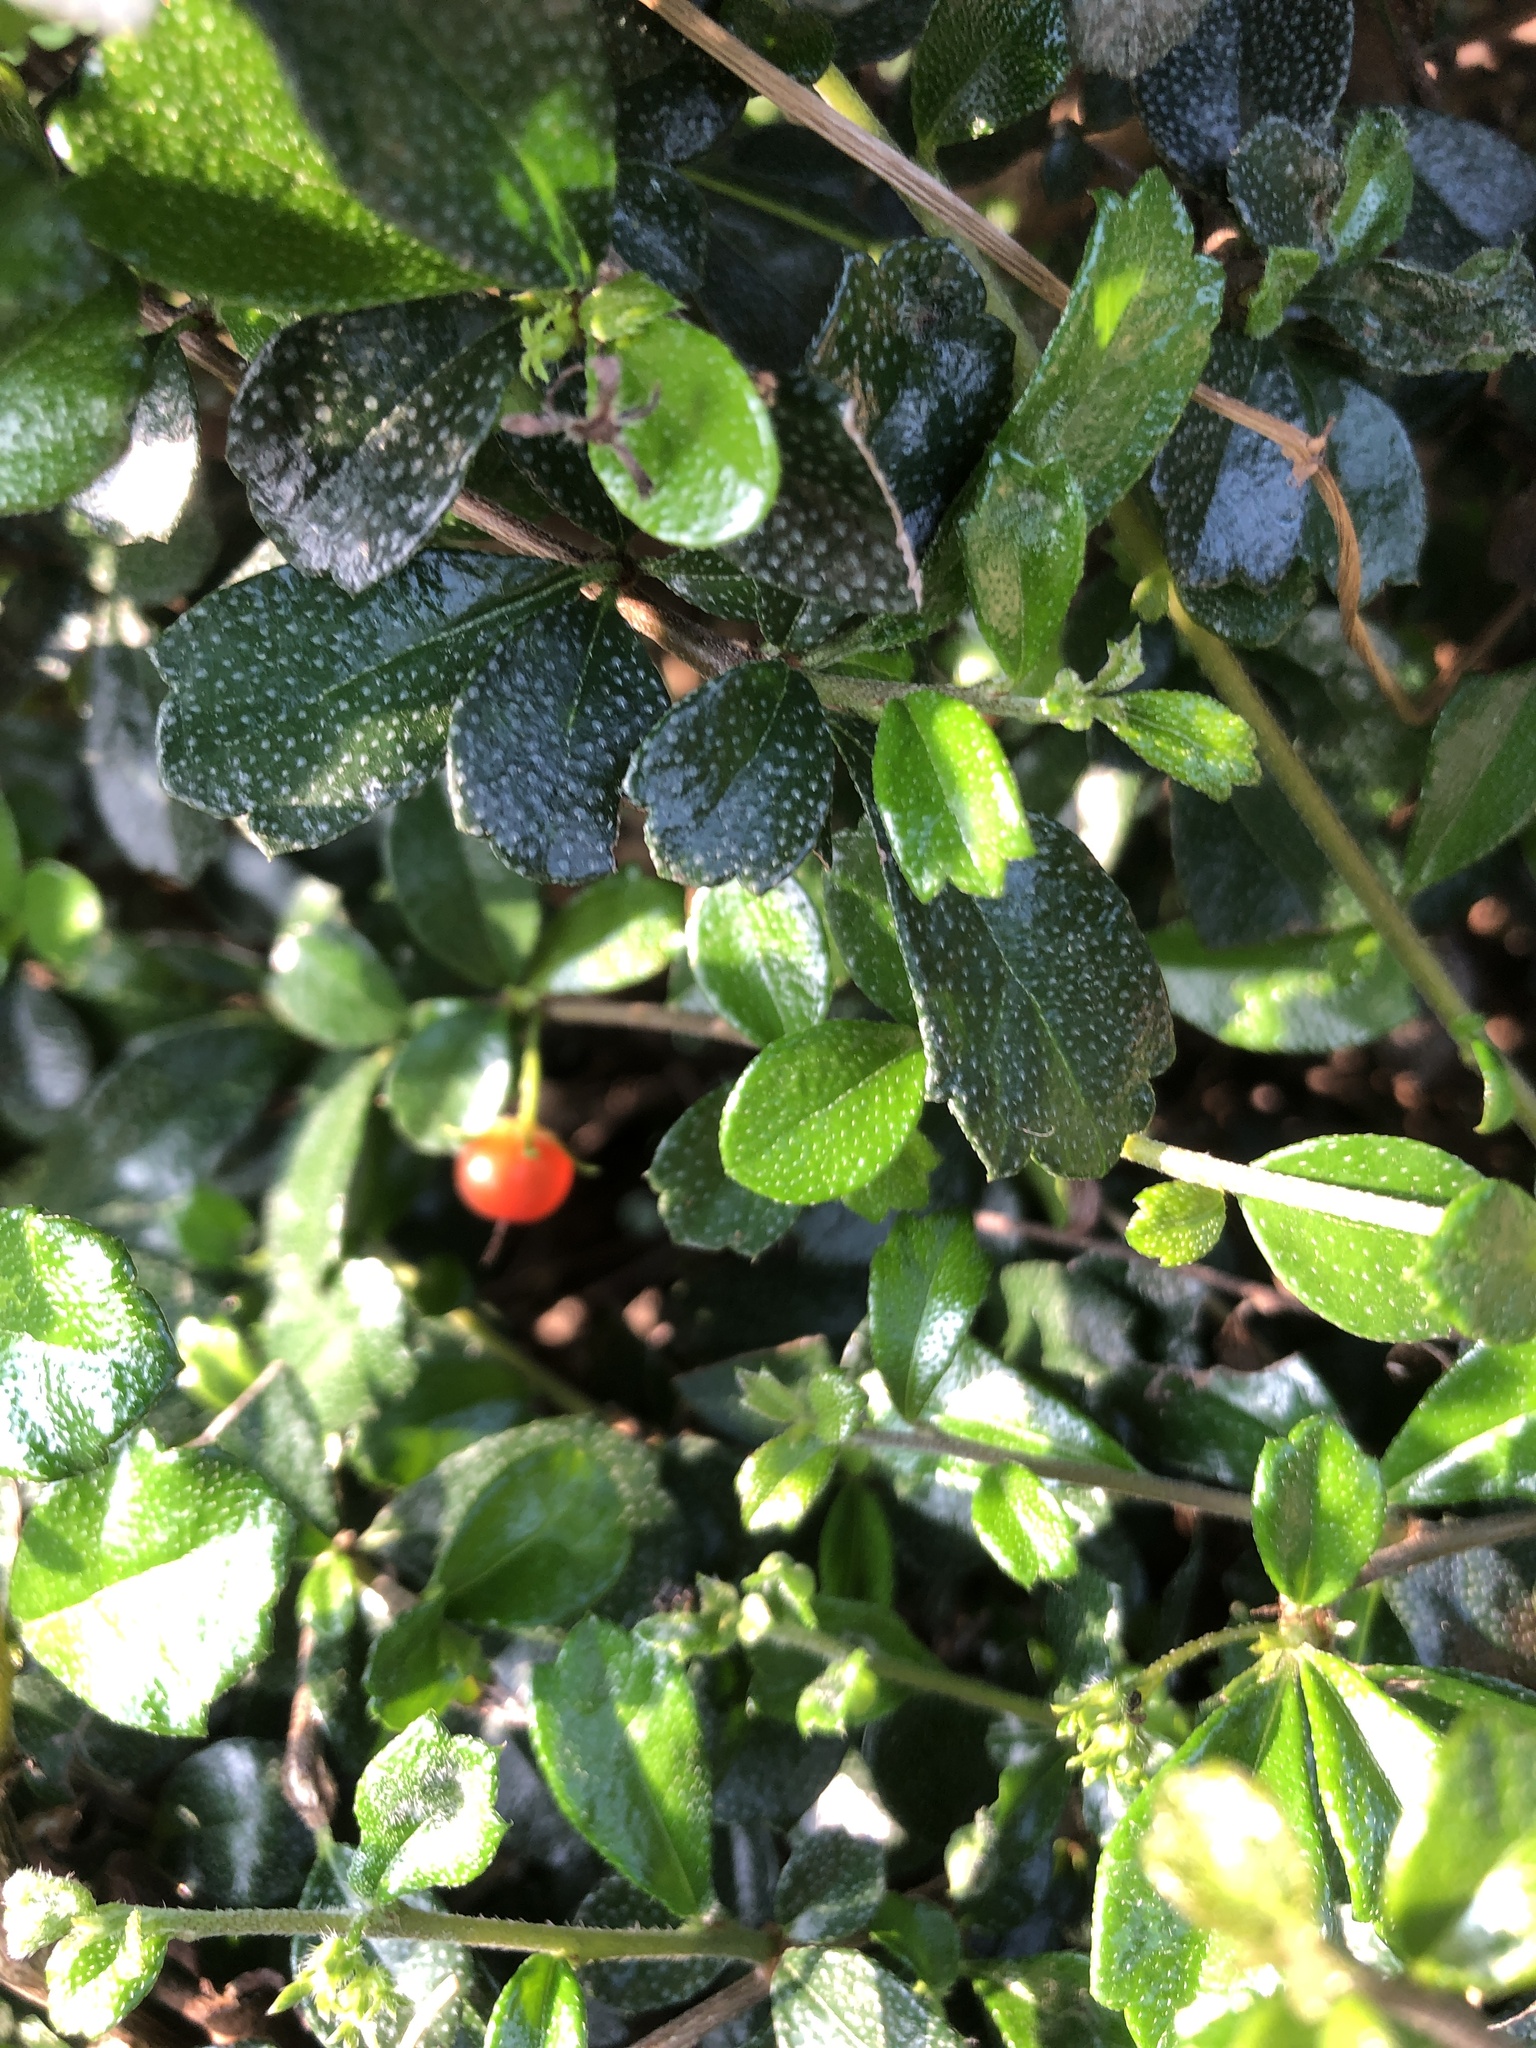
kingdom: Plantae
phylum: Tracheophyta
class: Magnoliopsida
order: Boraginales
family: Ehretiaceae
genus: Ehretia
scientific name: Ehretia microphylla
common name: Fukien-tea
